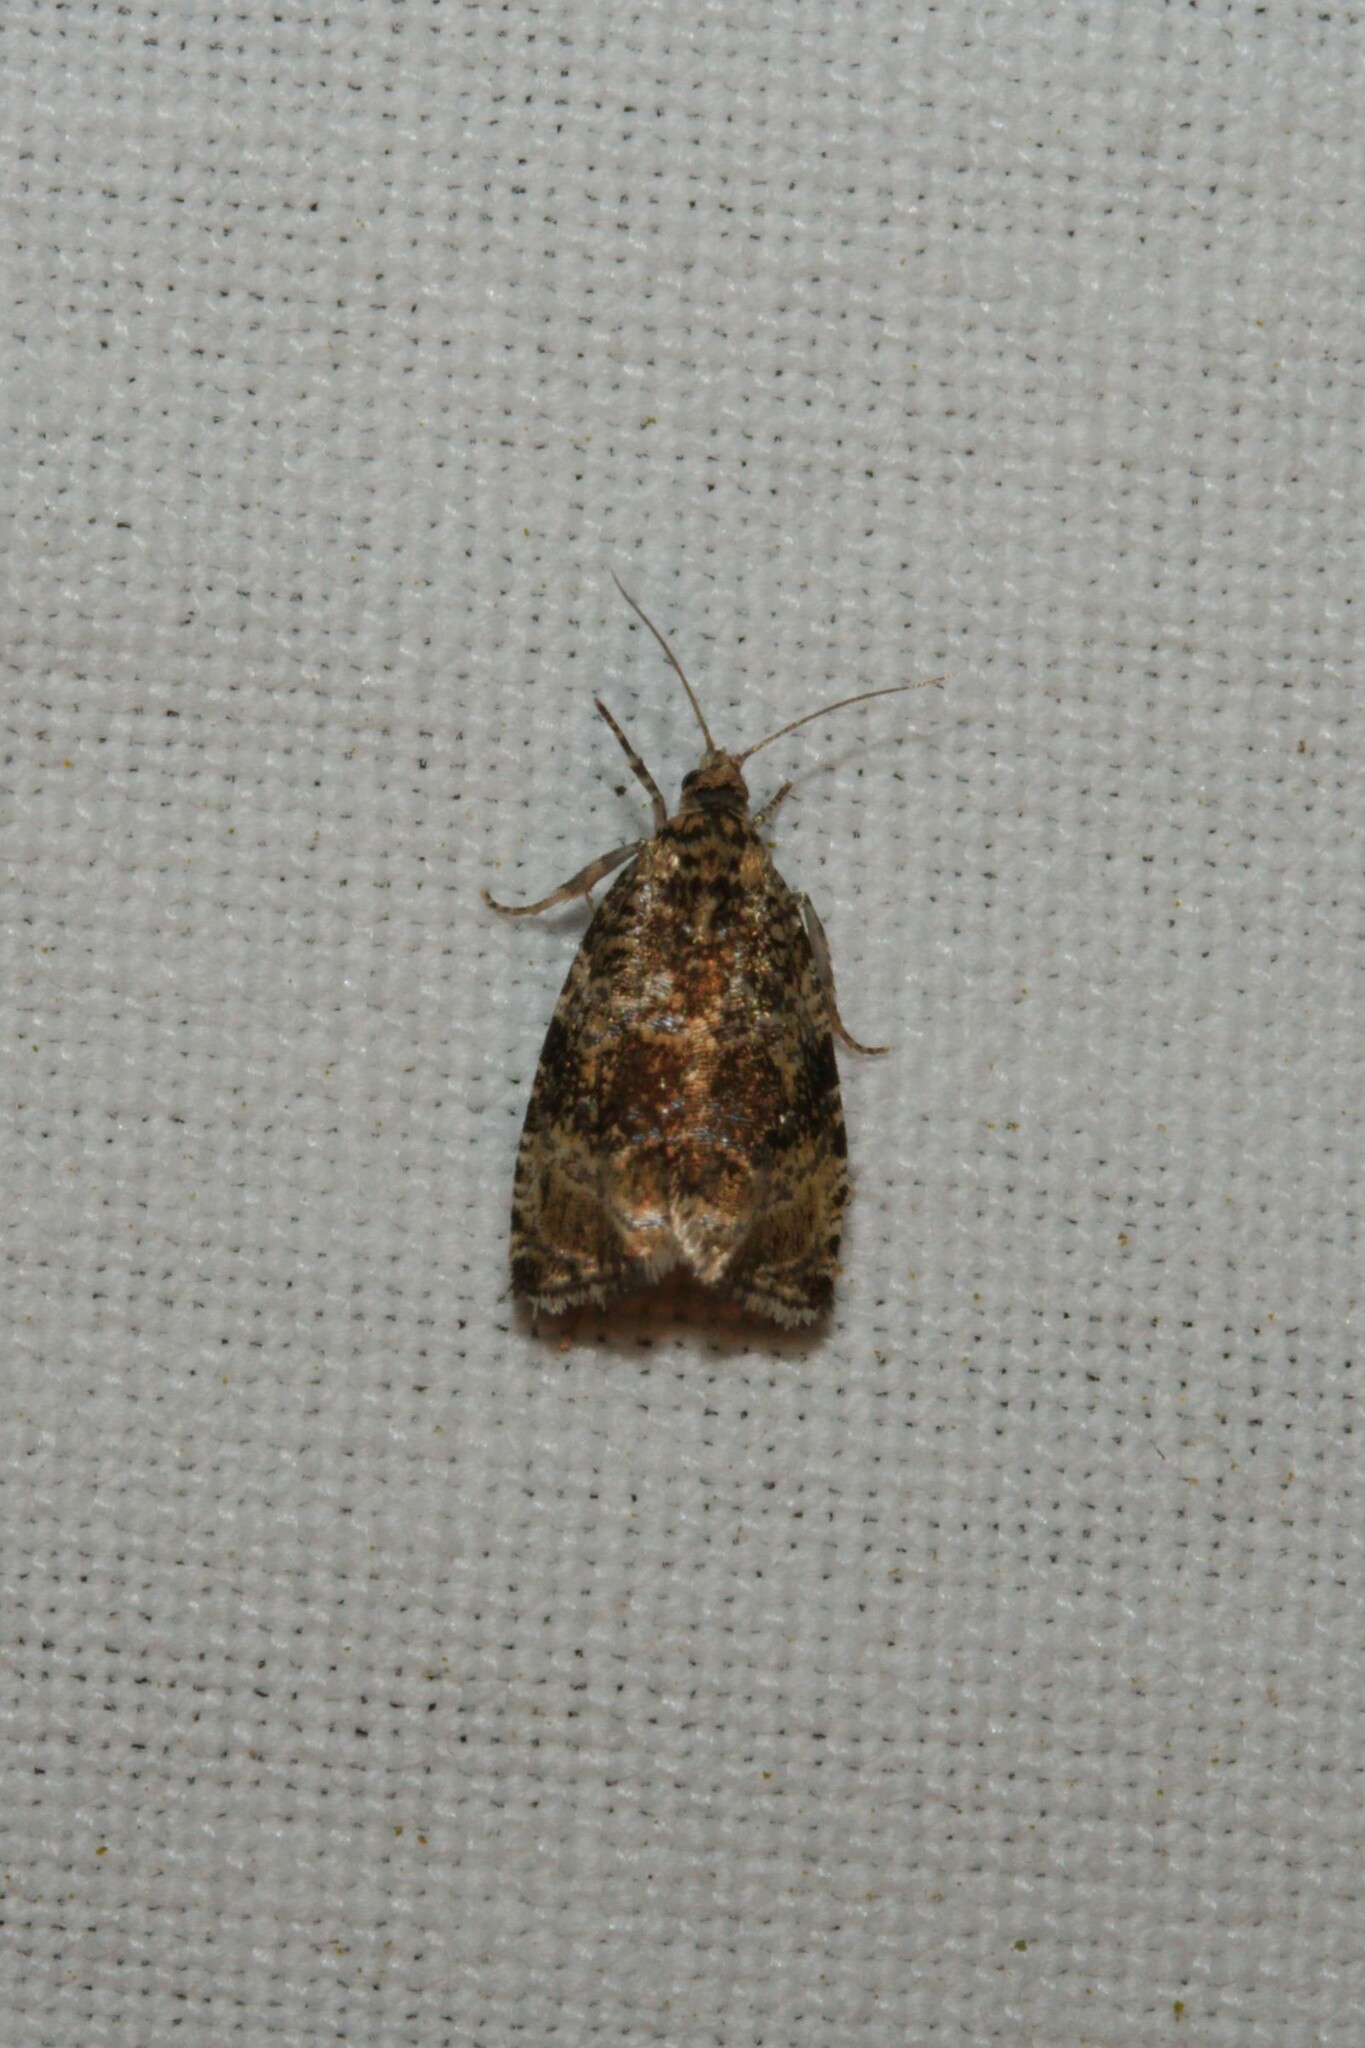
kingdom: Animalia
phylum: Arthropoda
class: Insecta
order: Lepidoptera
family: Tortricidae
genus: Syricoris
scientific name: Syricoris lacunana
